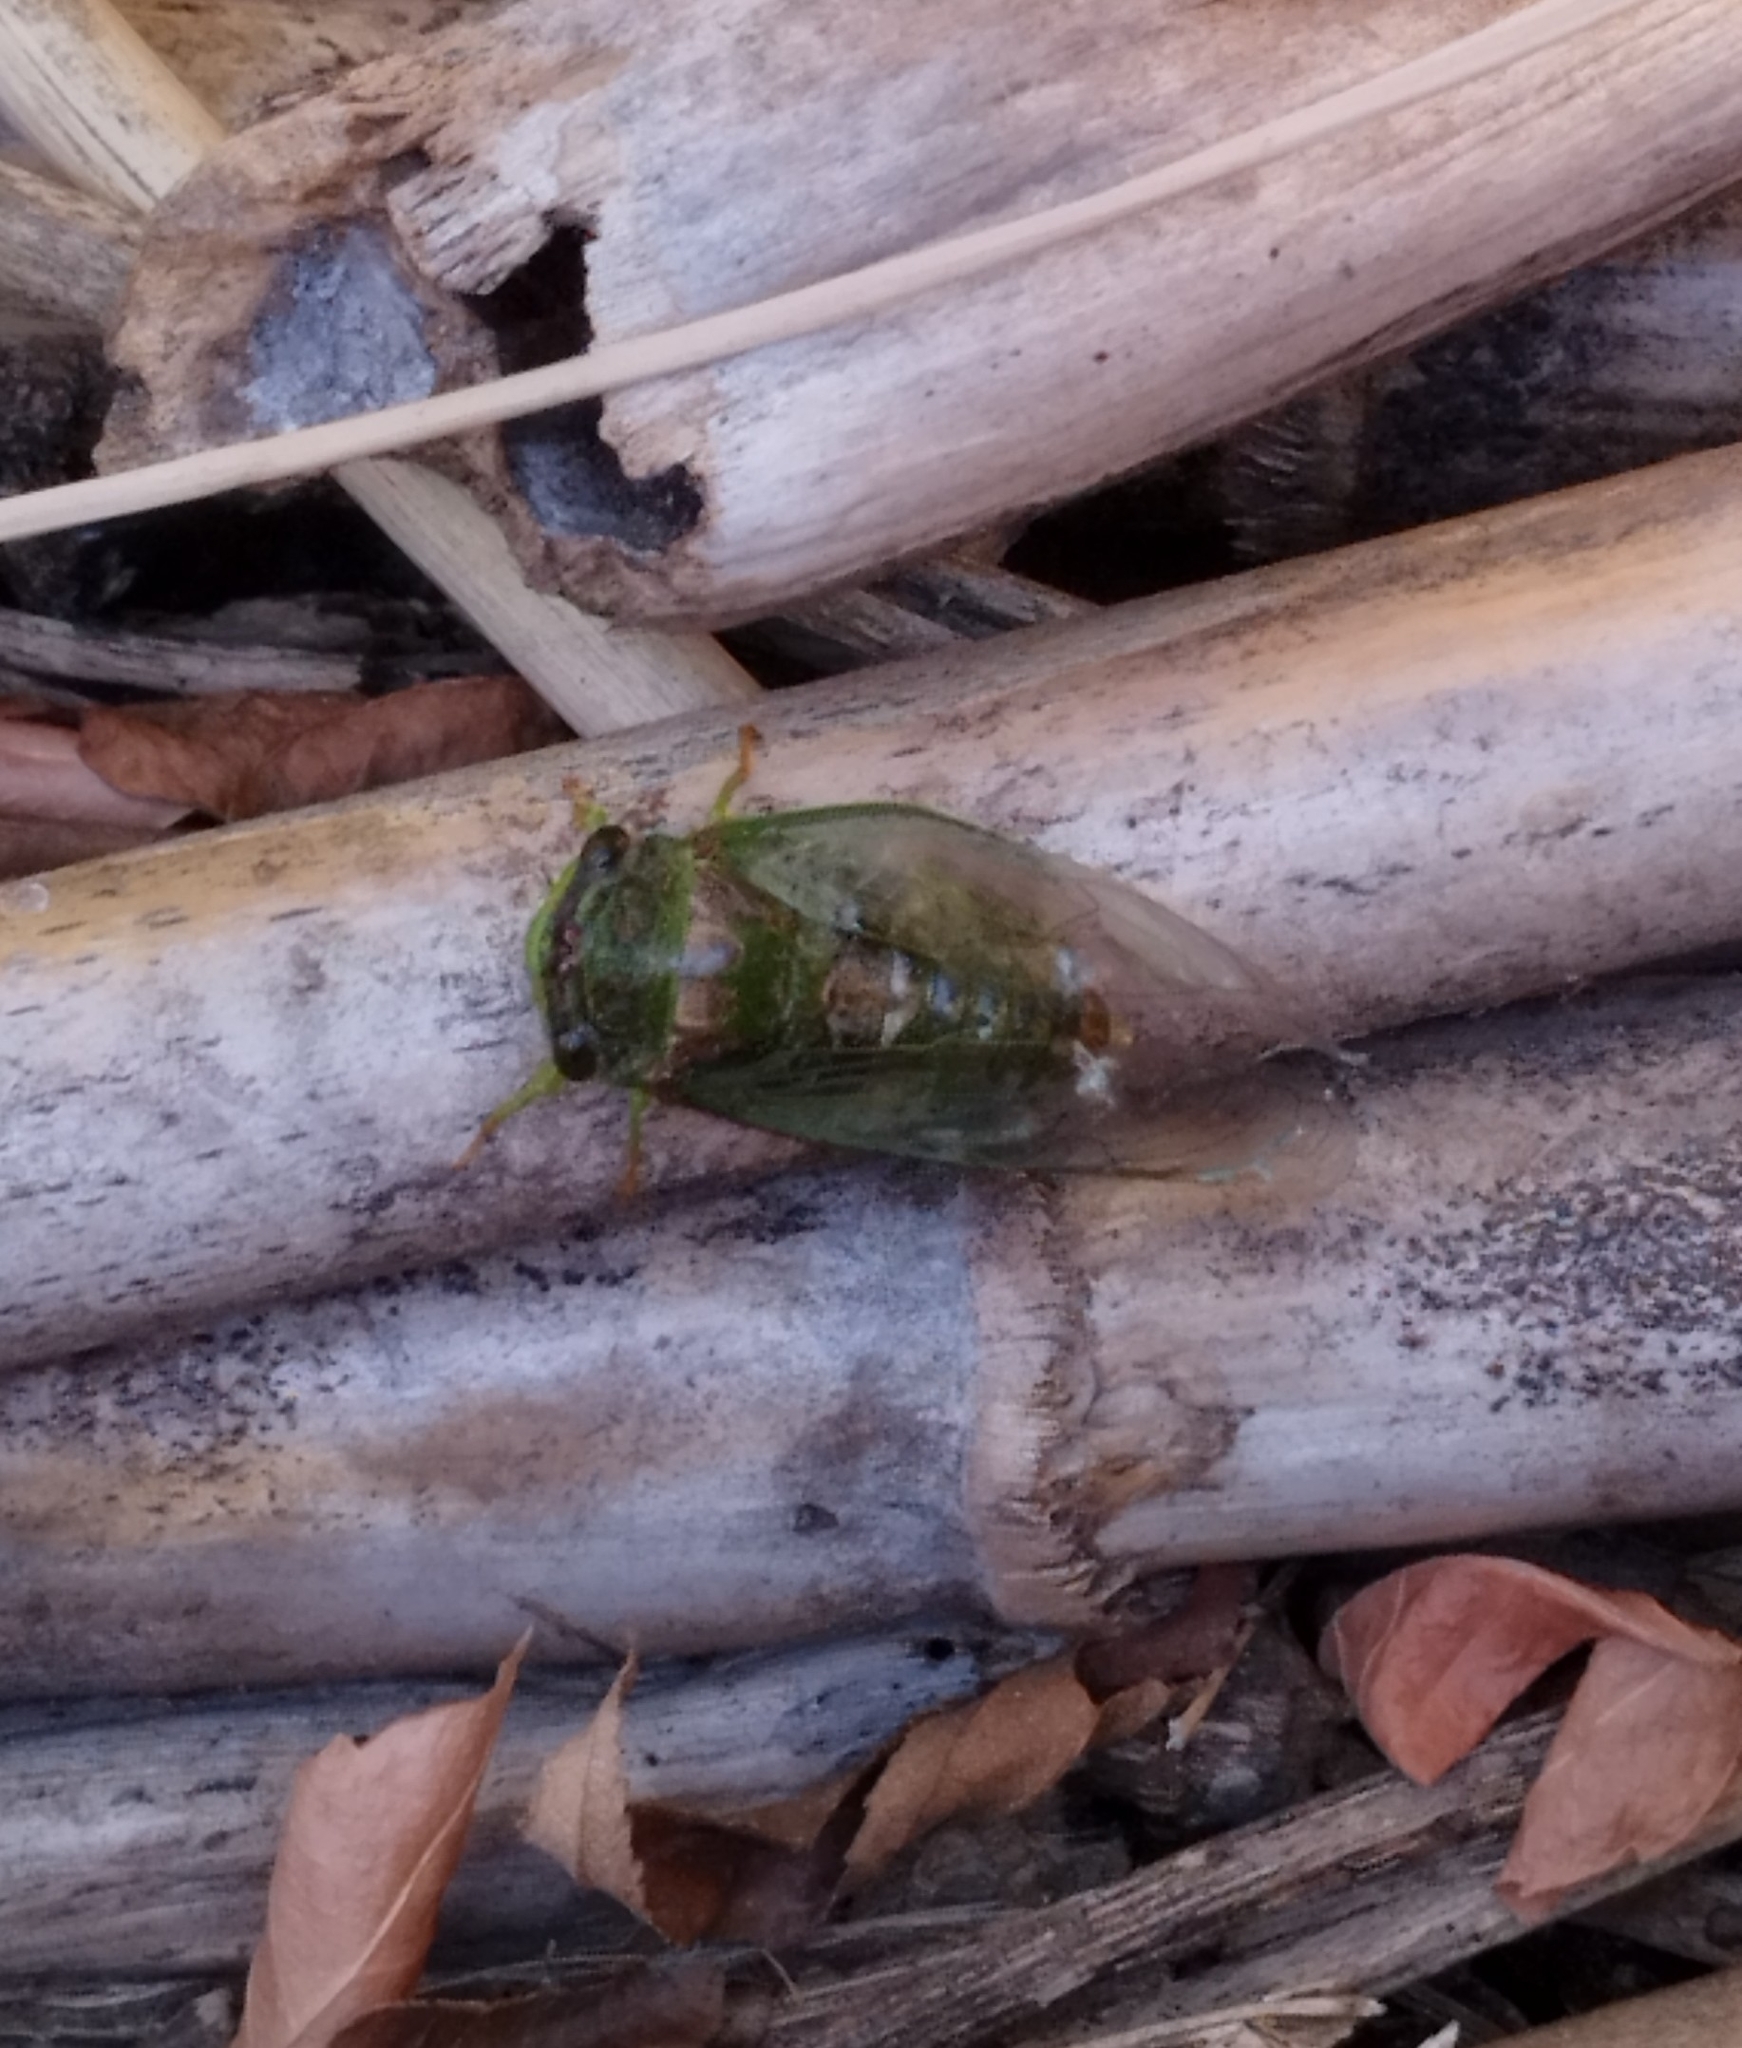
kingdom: Animalia
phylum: Arthropoda
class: Insecta
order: Hemiptera
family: Cicadidae
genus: Acanthoventris
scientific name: Acanthoventris drewseni
